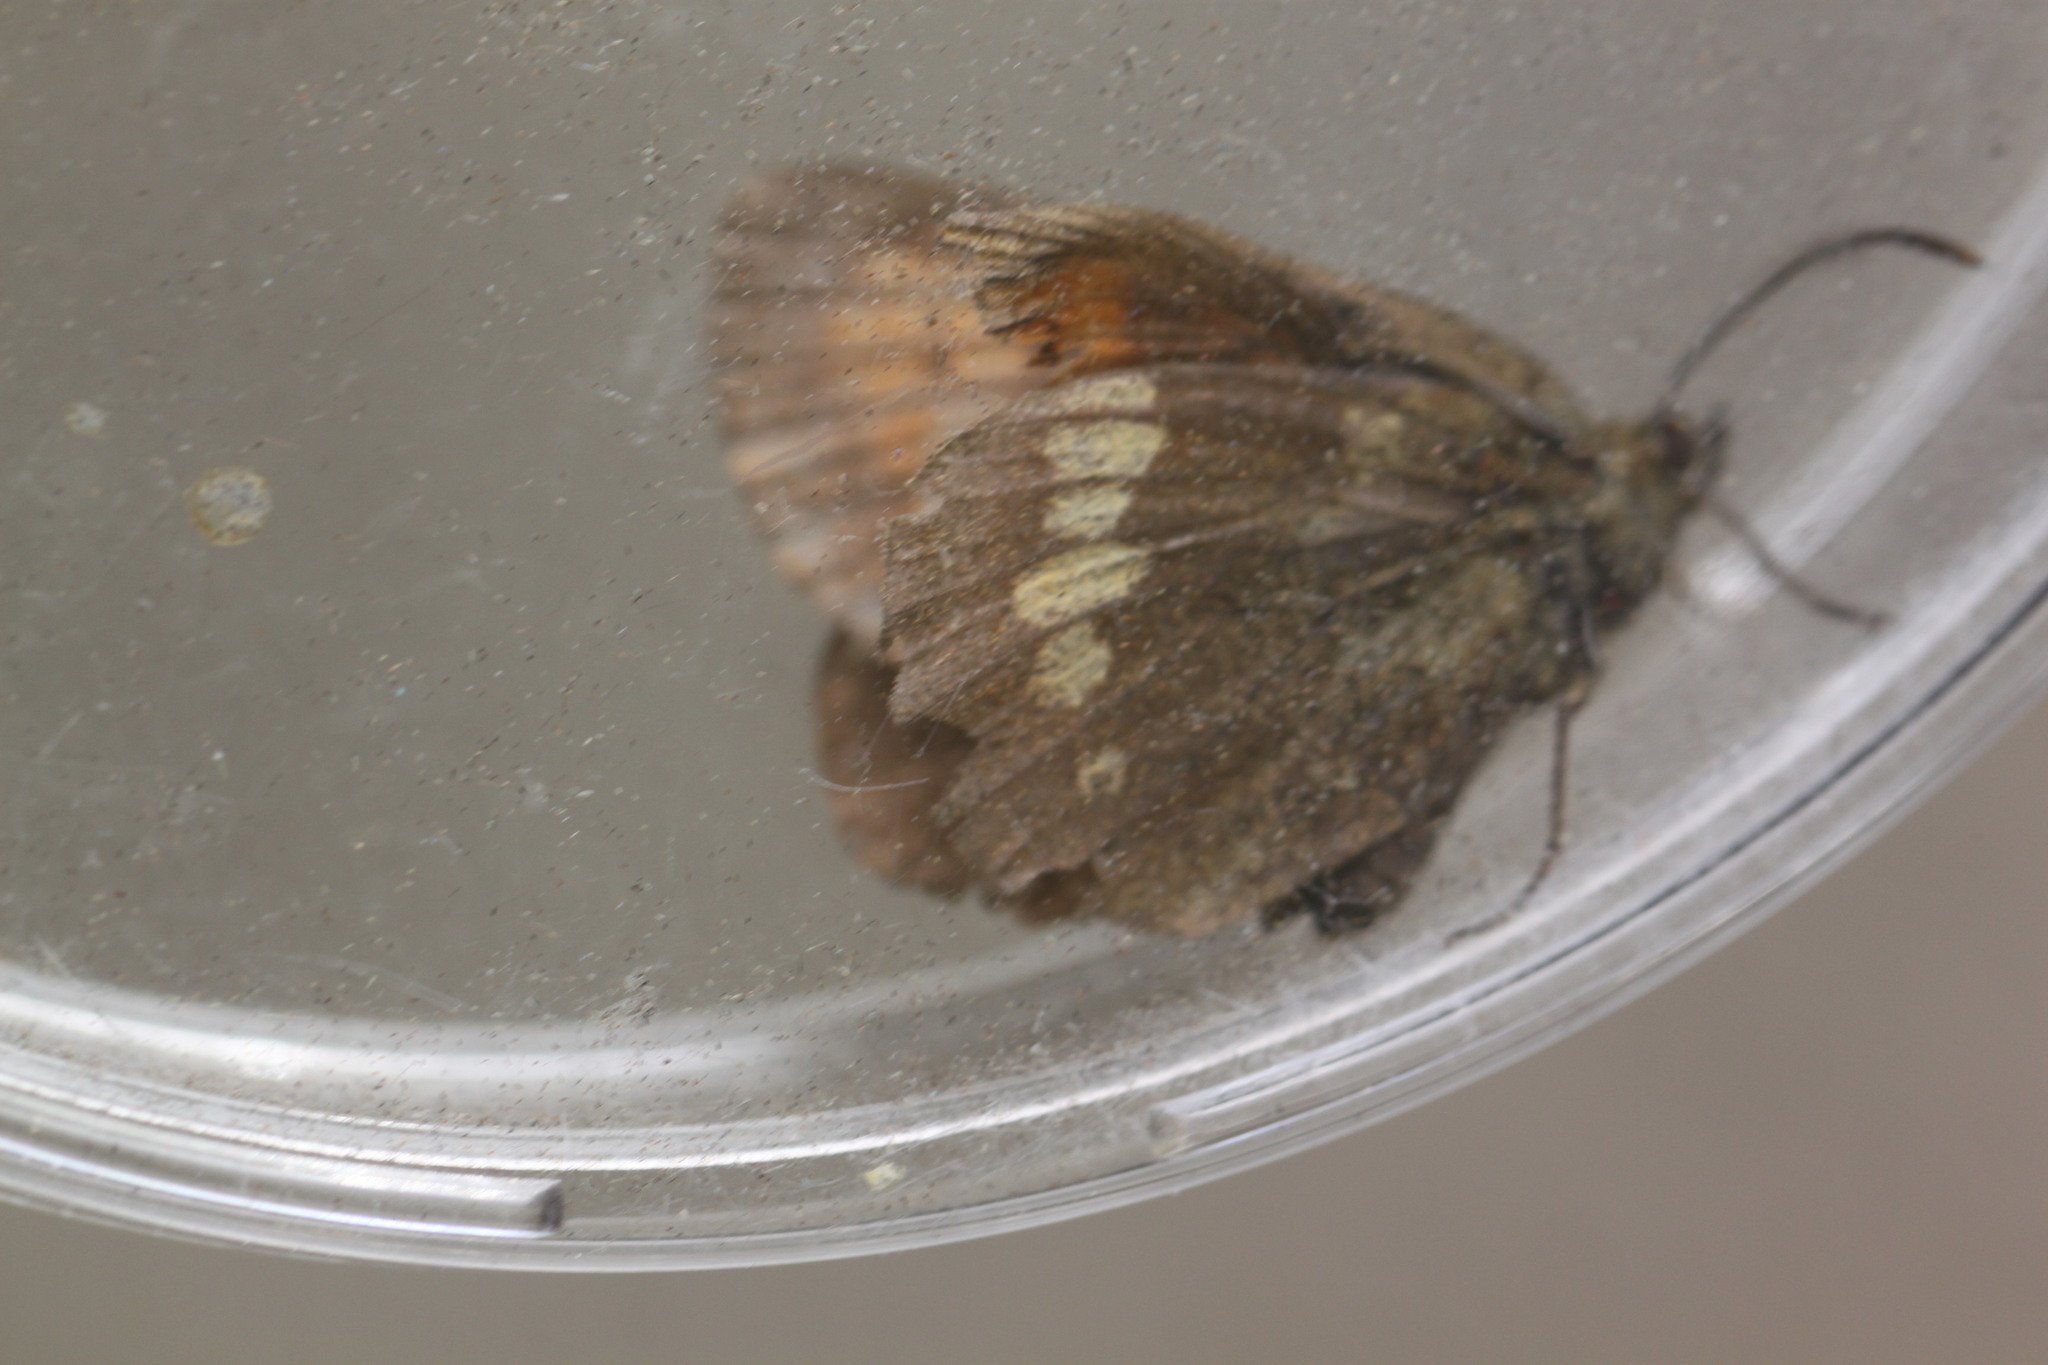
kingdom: Animalia
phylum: Arthropoda
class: Insecta
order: Lepidoptera
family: Nymphalidae
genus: Erebia
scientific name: Erebia manto
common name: Yellow-spotted ringlet
